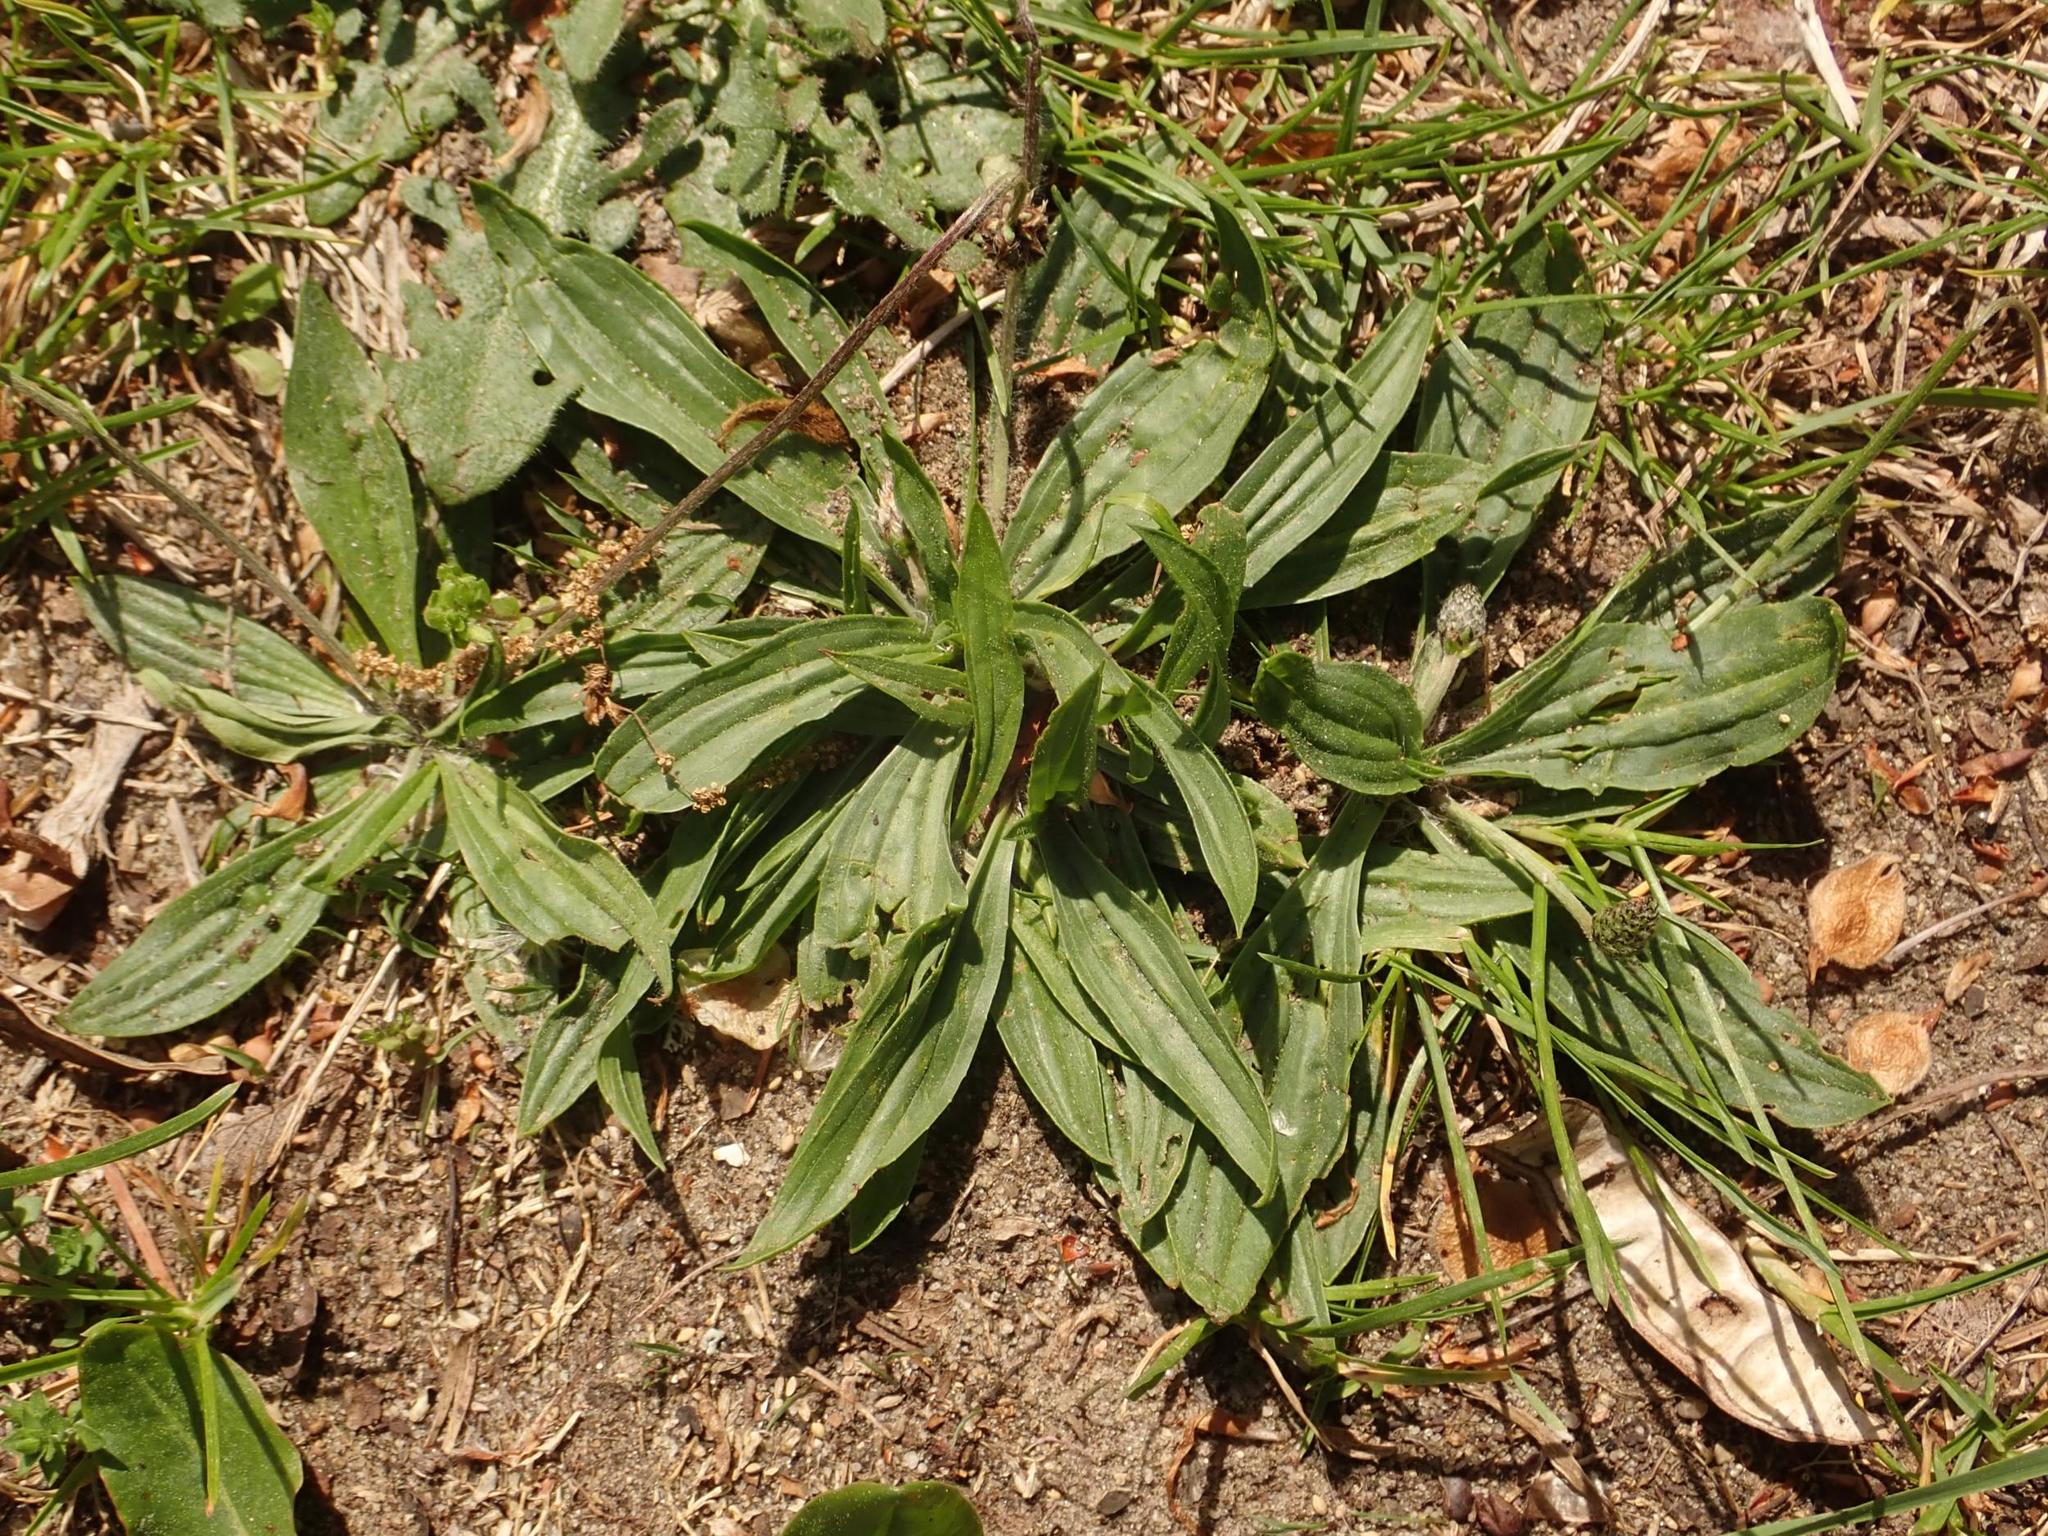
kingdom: Plantae
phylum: Tracheophyta
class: Magnoliopsida
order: Lamiales
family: Plantaginaceae
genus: Plantago
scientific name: Plantago lanceolata
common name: Ribwort plantain
